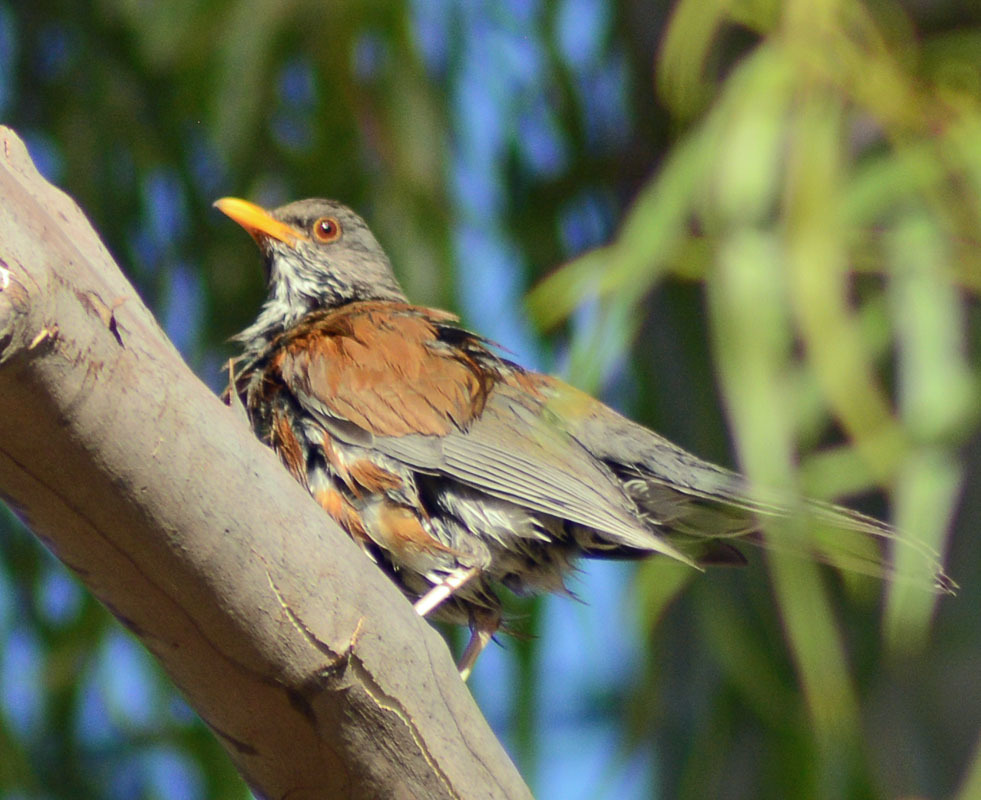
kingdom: Animalia
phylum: Chordata
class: Aves
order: Passeriformes
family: Turdidae
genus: Turdus
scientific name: Turdus rufopalliatus
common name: Rufous-backed robin
